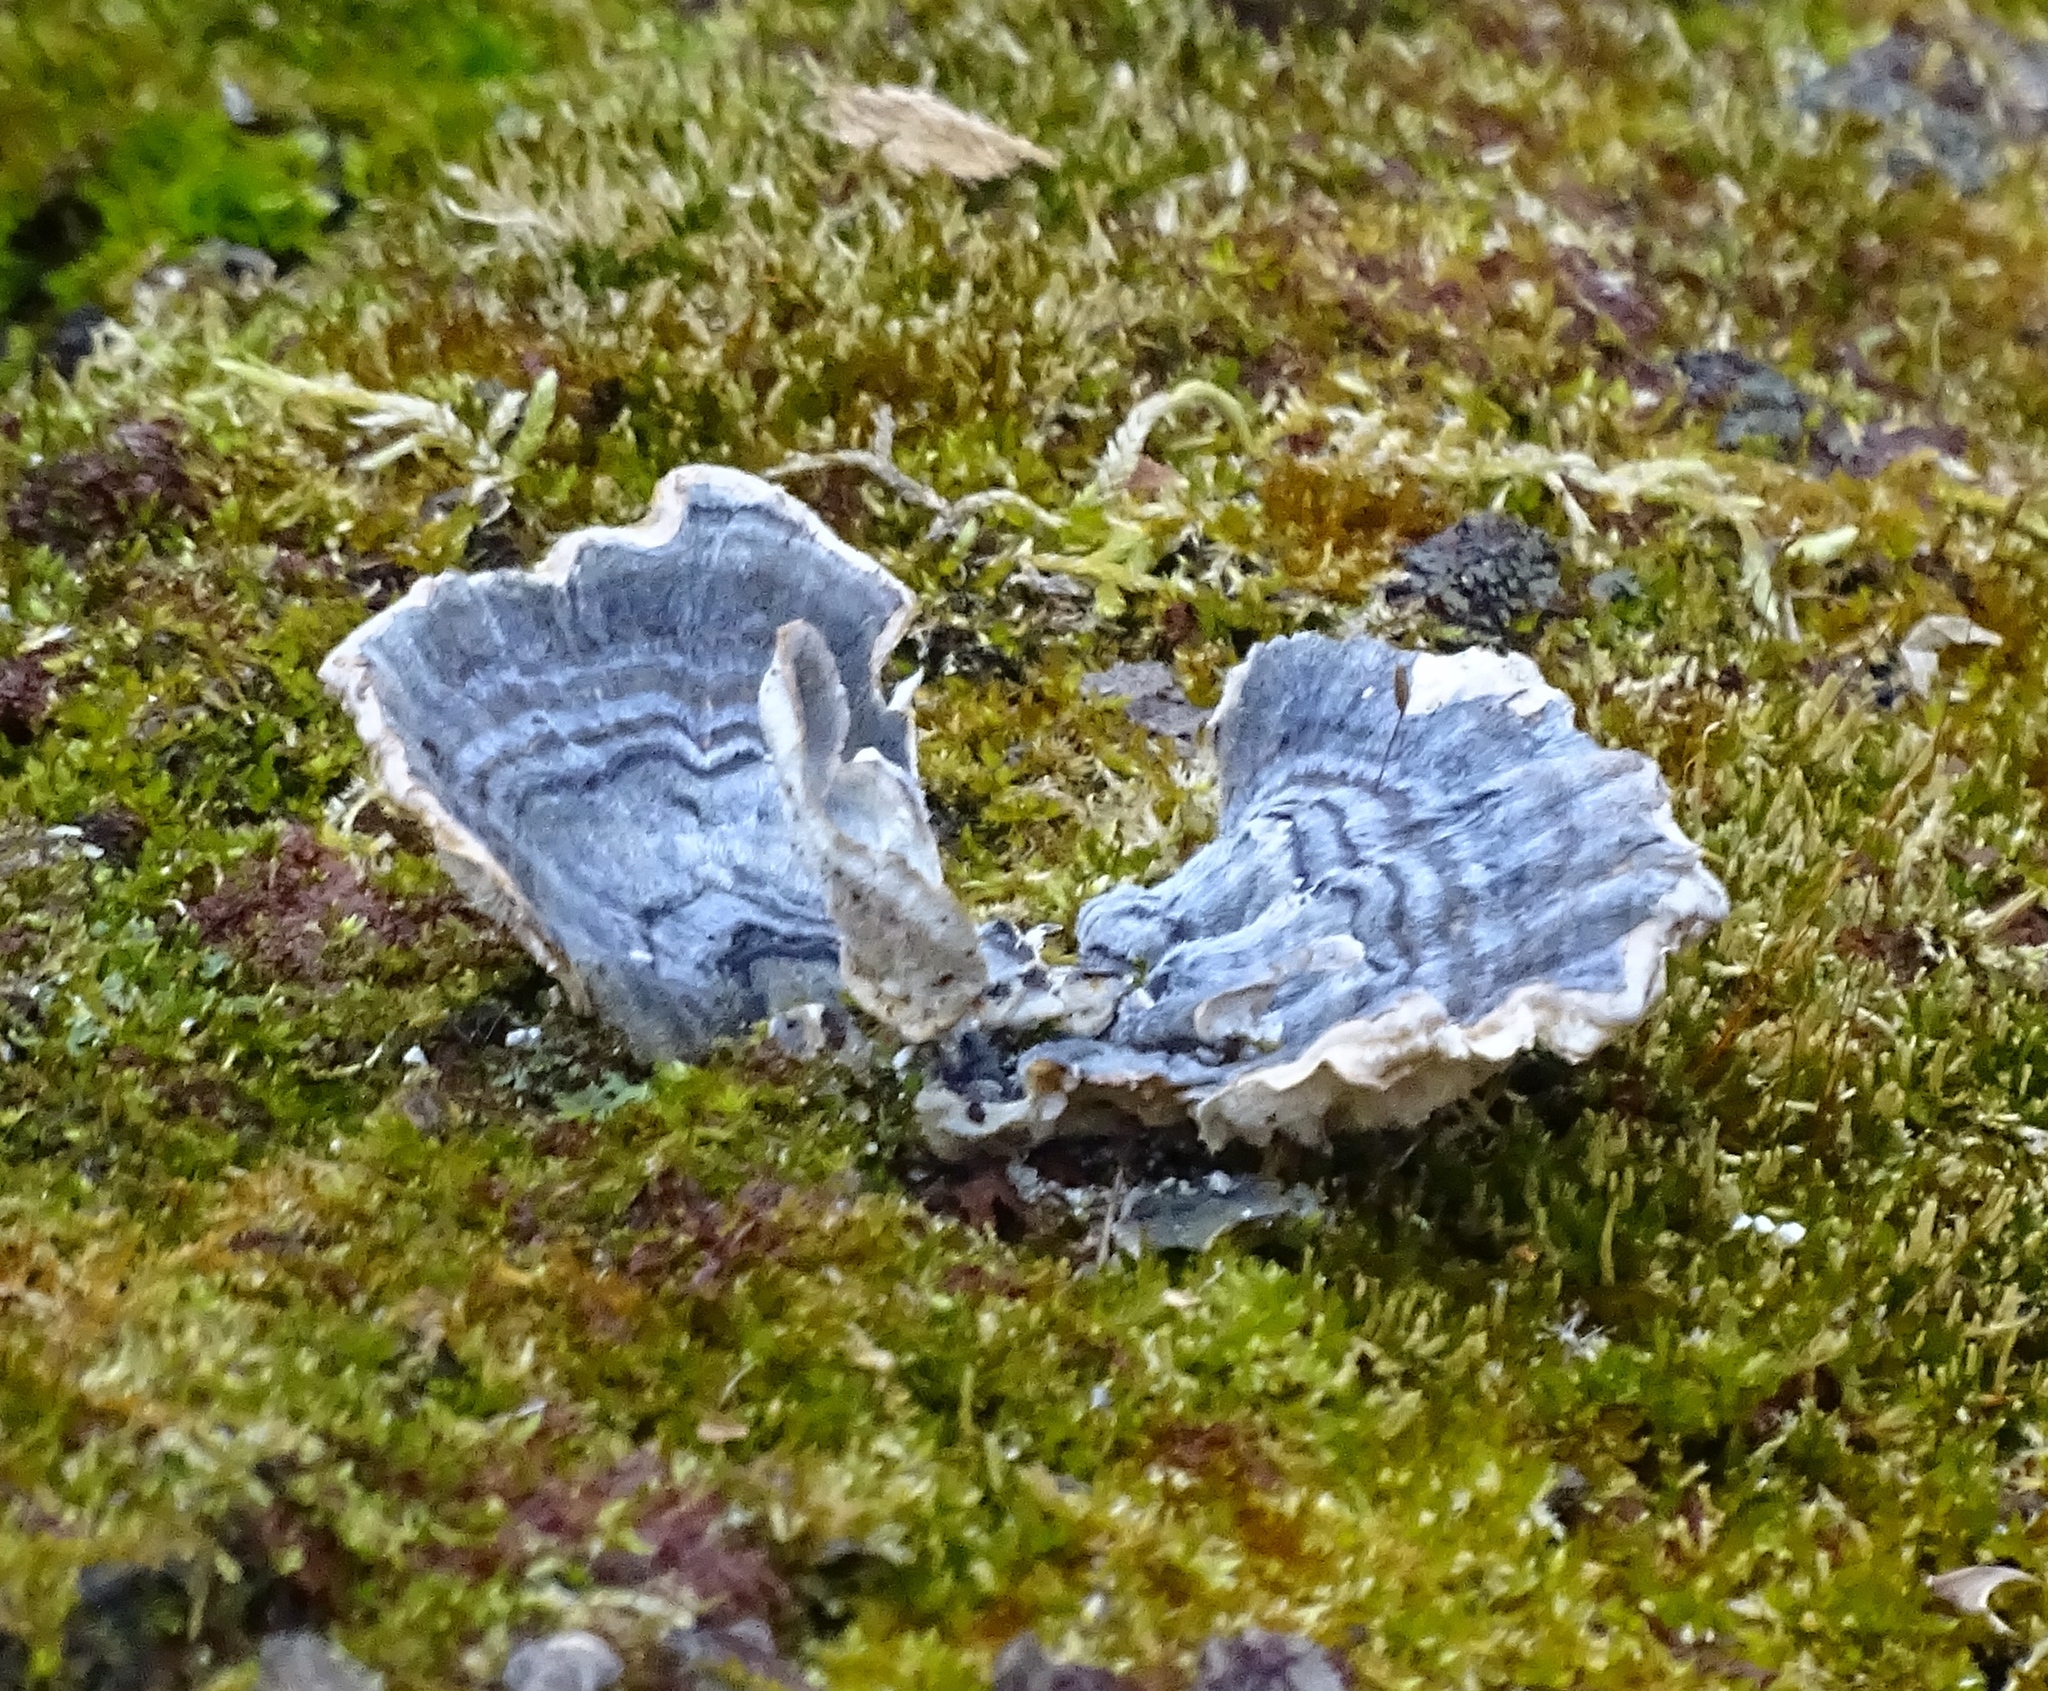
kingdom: Fungi
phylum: Basidiomycota
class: Agaricomycetes
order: Polyporales
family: Polyporaceae
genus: Trametes
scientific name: Trametes versicolor
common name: Turkeytail
